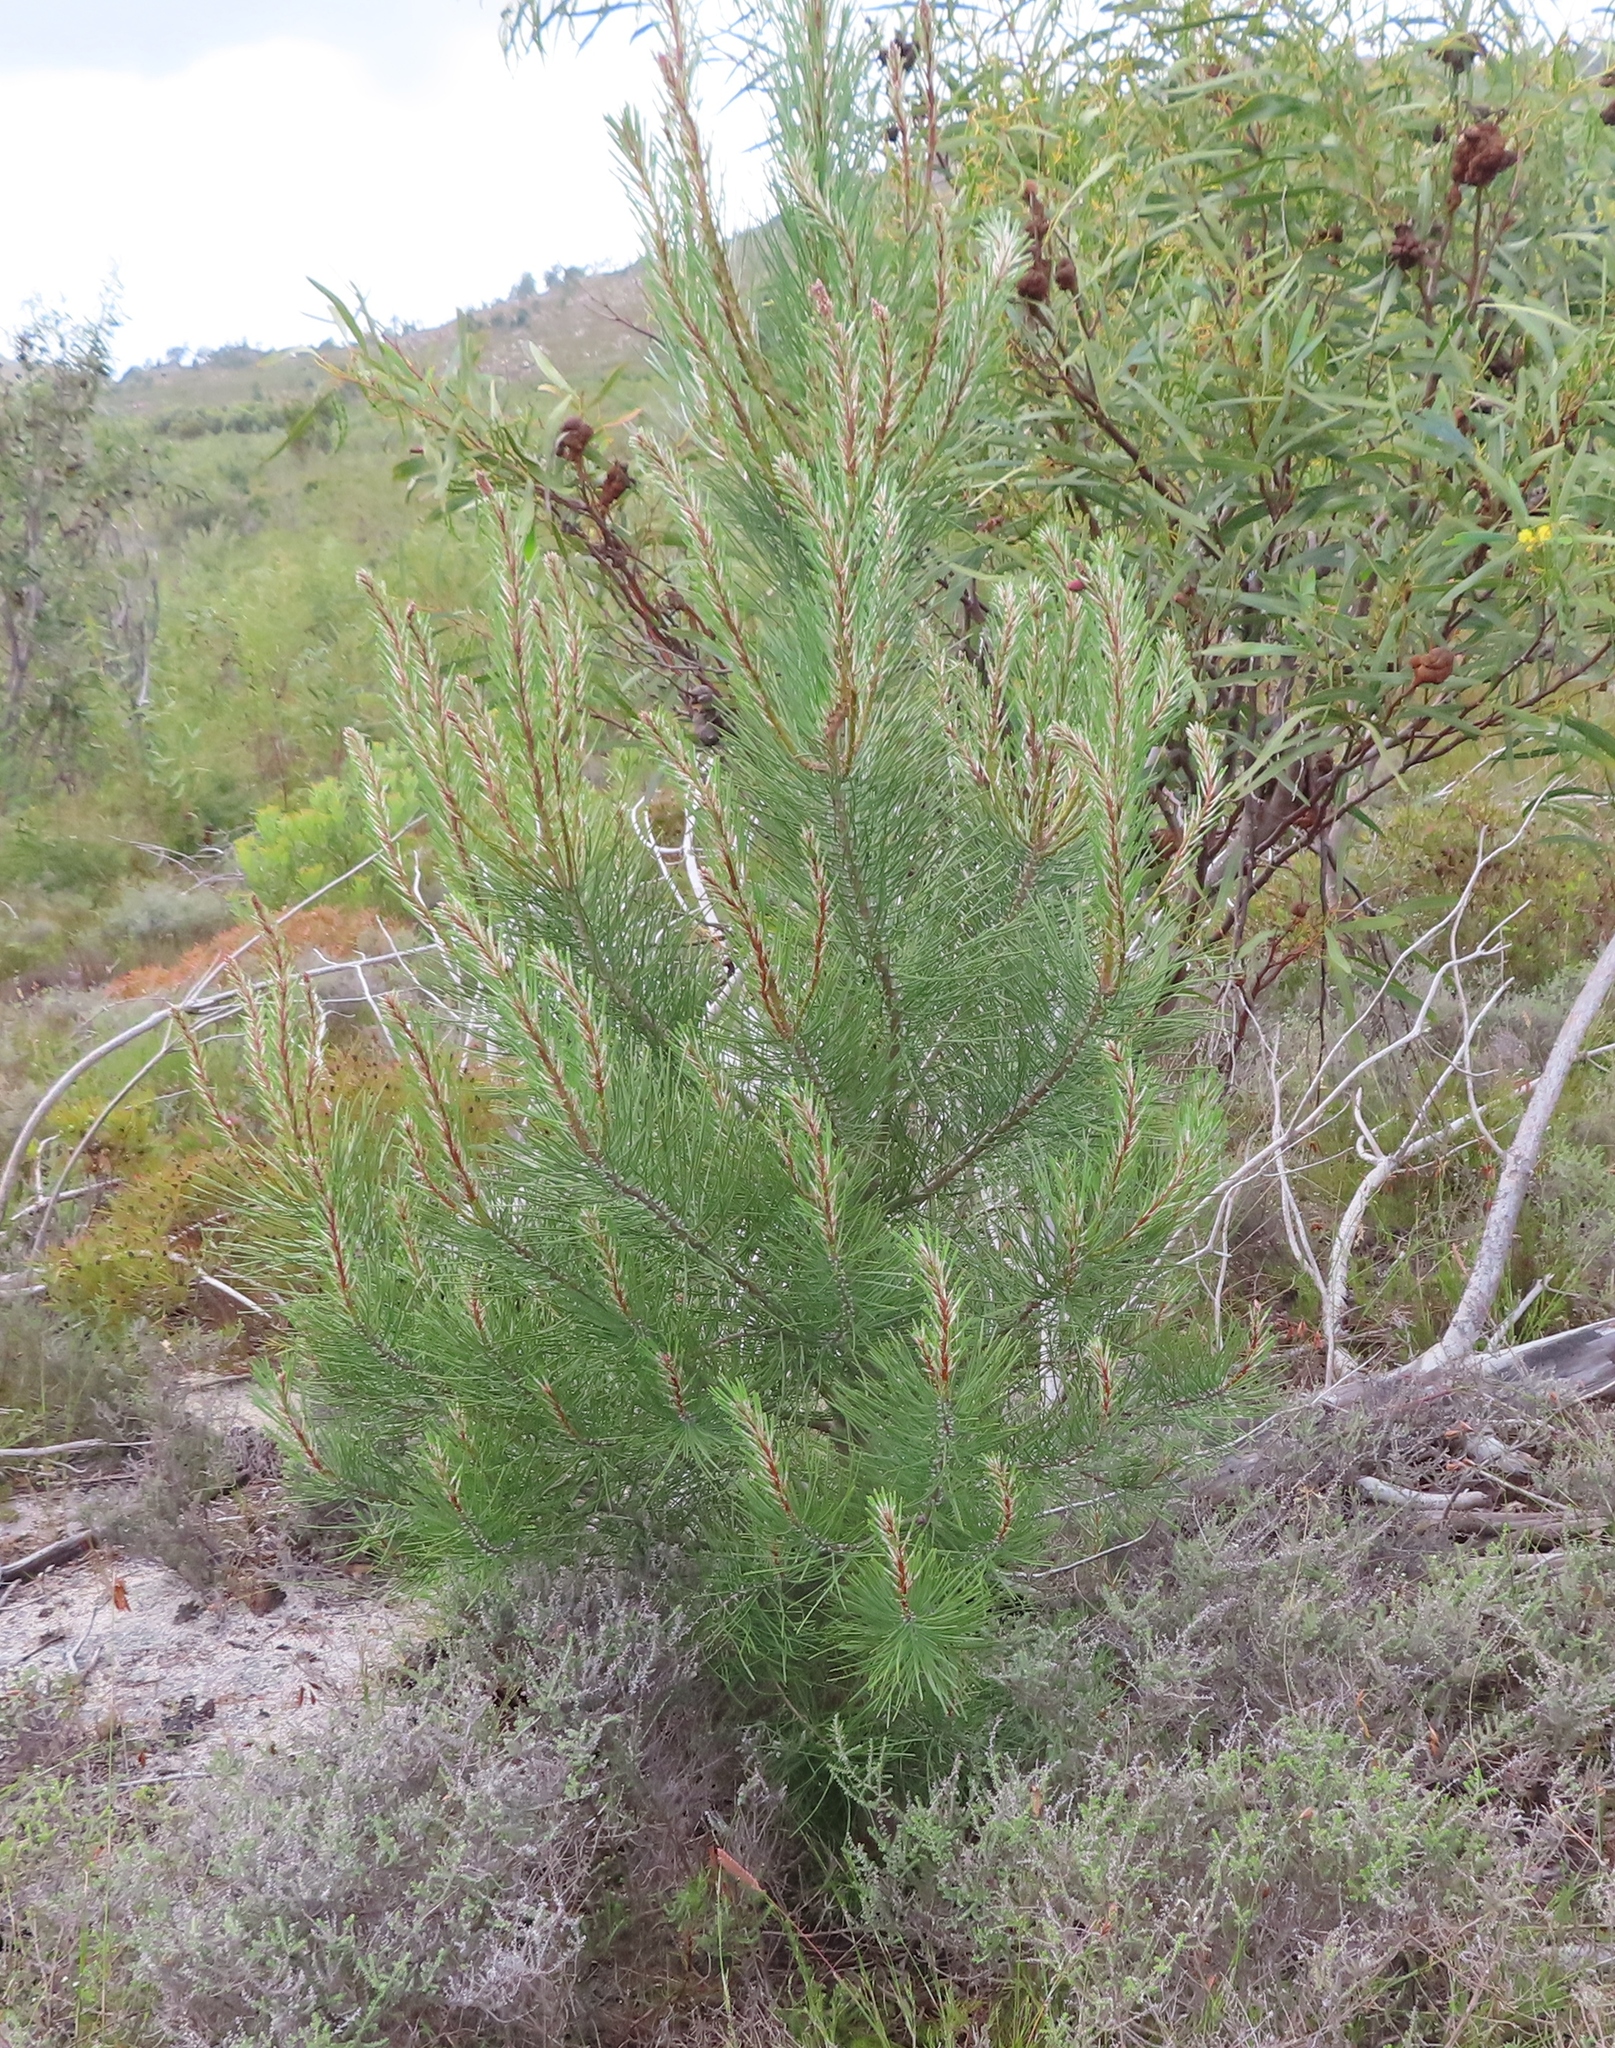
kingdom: Plantae
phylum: Tracheophyta
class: Pinopsida
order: Pinales
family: Pinaceae
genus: Pinus
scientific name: Pinus pinaster
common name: Maritime pine
